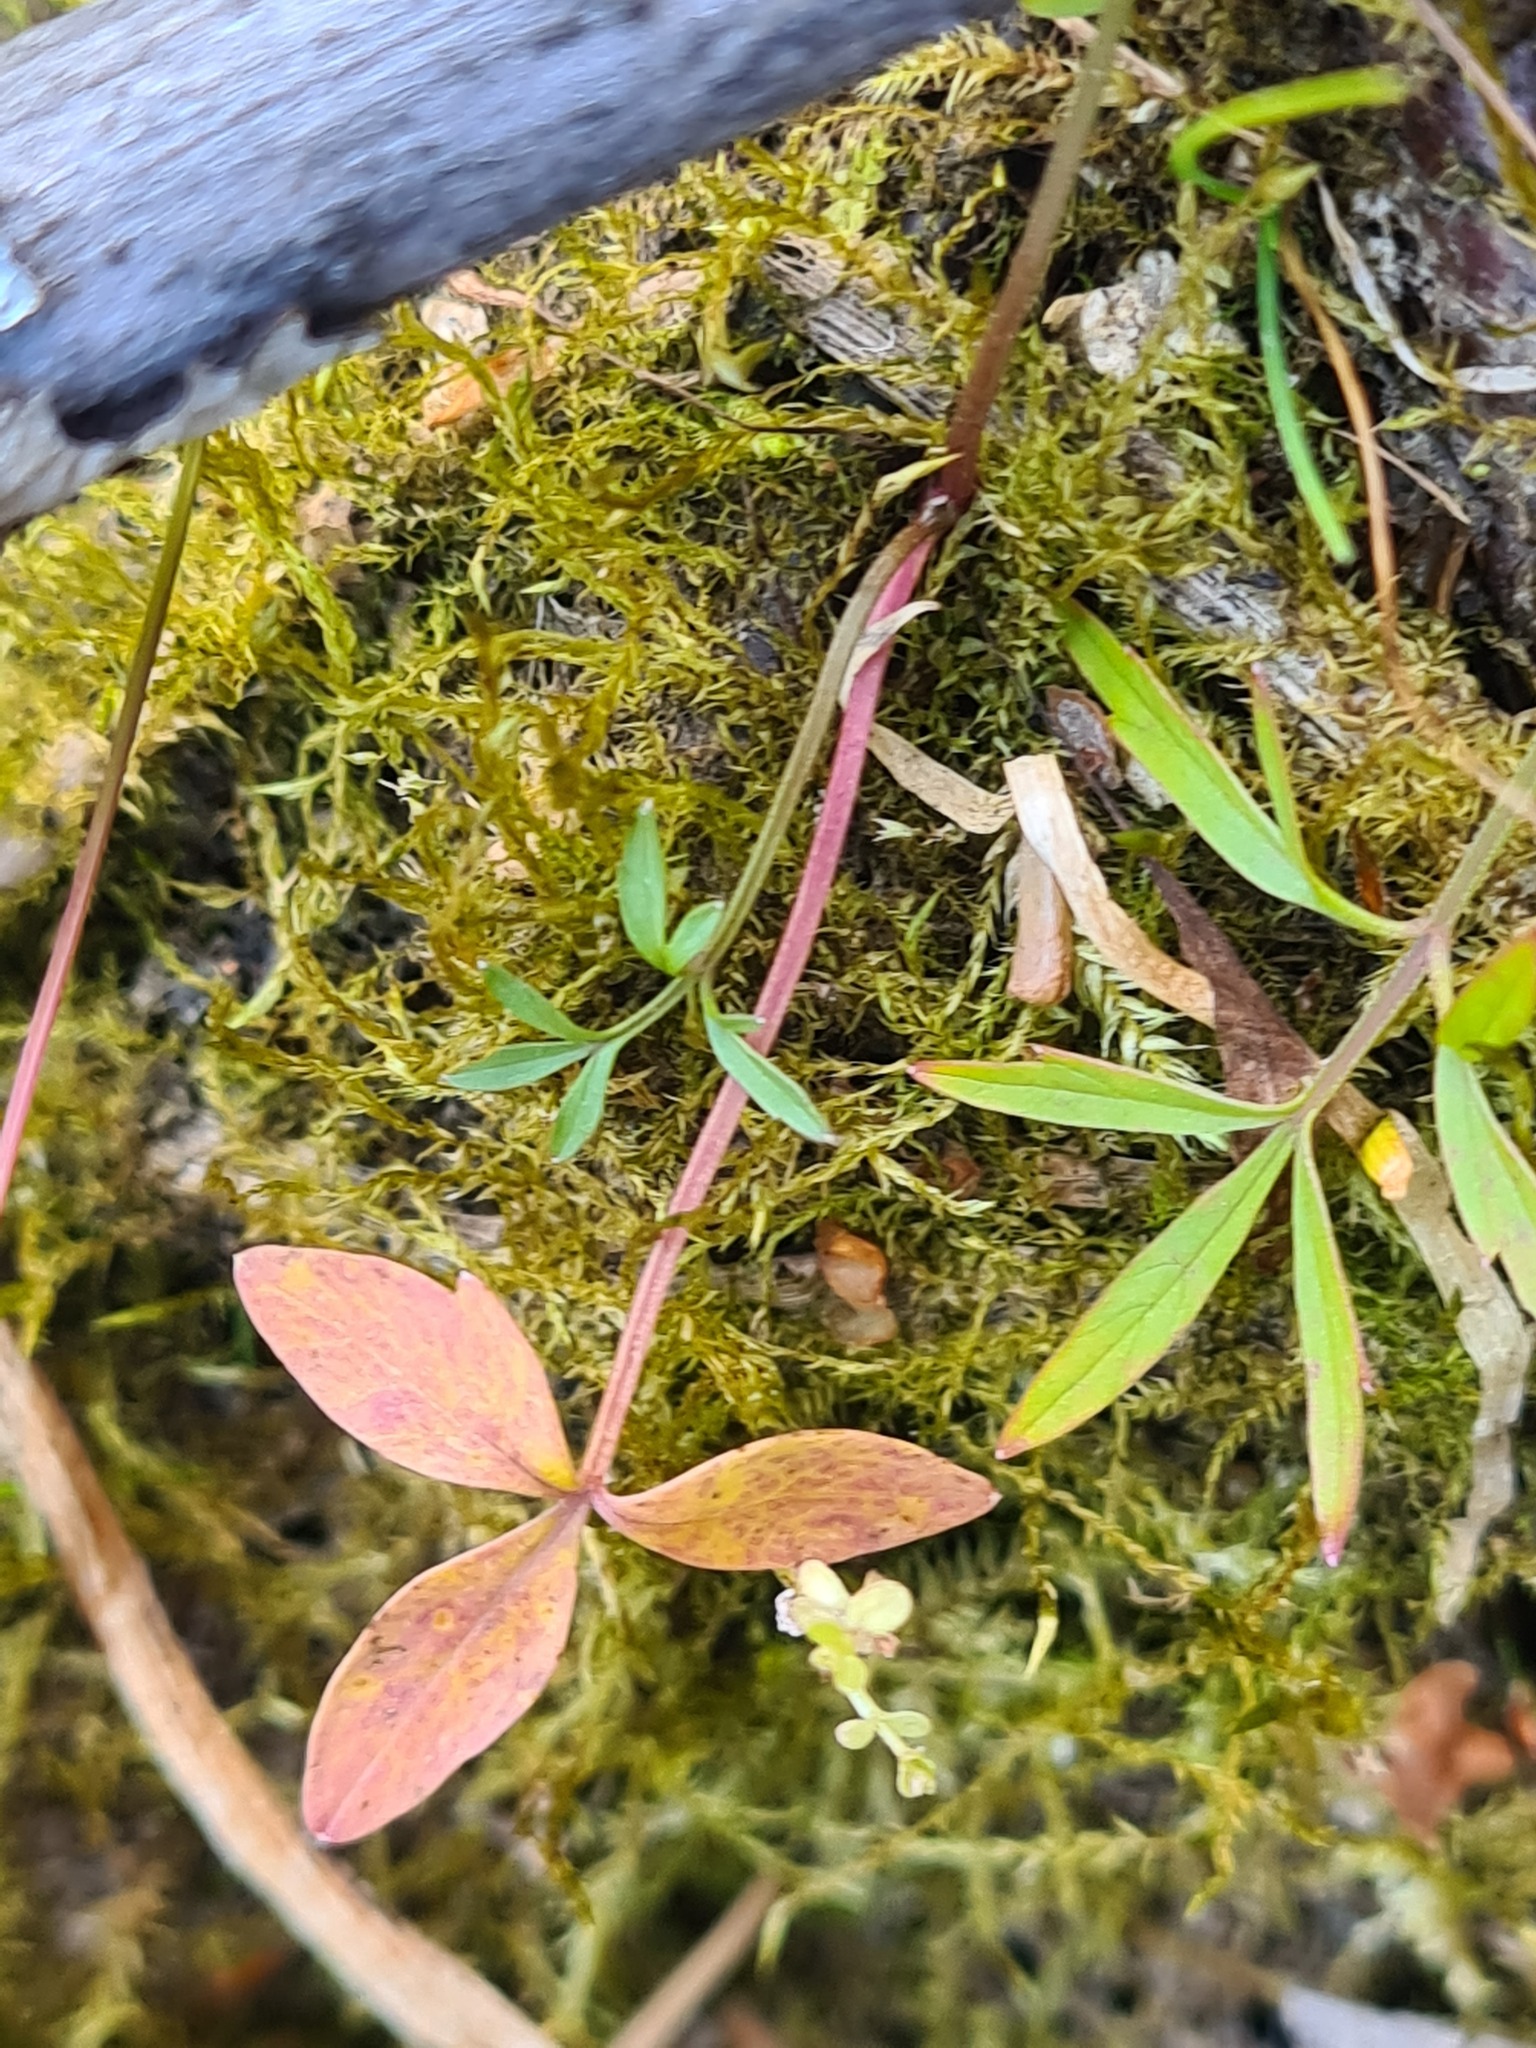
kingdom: Plantae
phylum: Tracheophyta
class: Magnoliopsida
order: Asterales
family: Menyanthaceae
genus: Menyanthes
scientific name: Menyanthes trifoliata
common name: Bogbean
